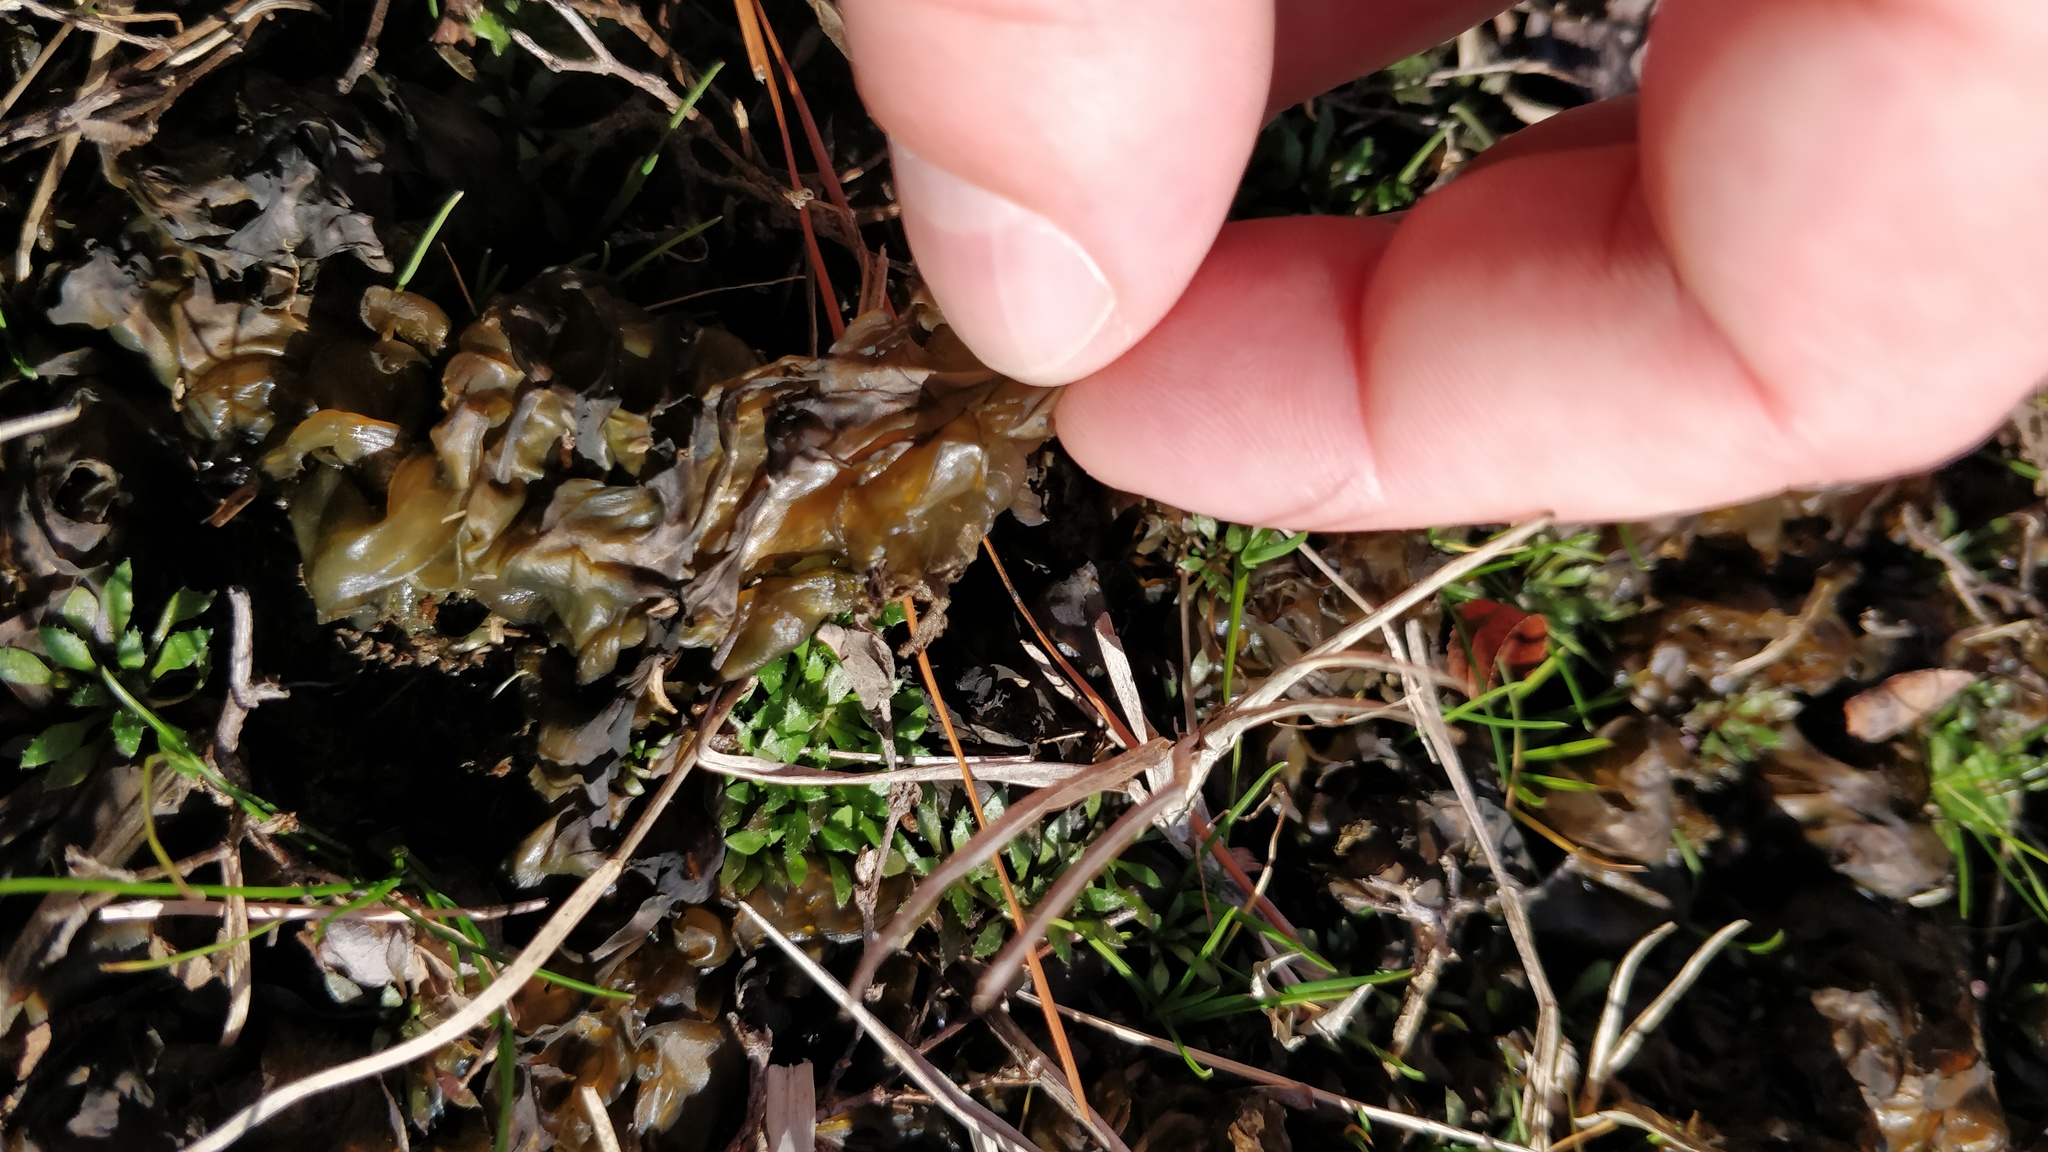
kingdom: Bacteria
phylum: Cyanobacteria
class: Cyanobacteriia
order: Cyanobacteriales
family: Nostocaceae
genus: Nostoc
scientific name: Nostoc commune
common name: Star jelly
